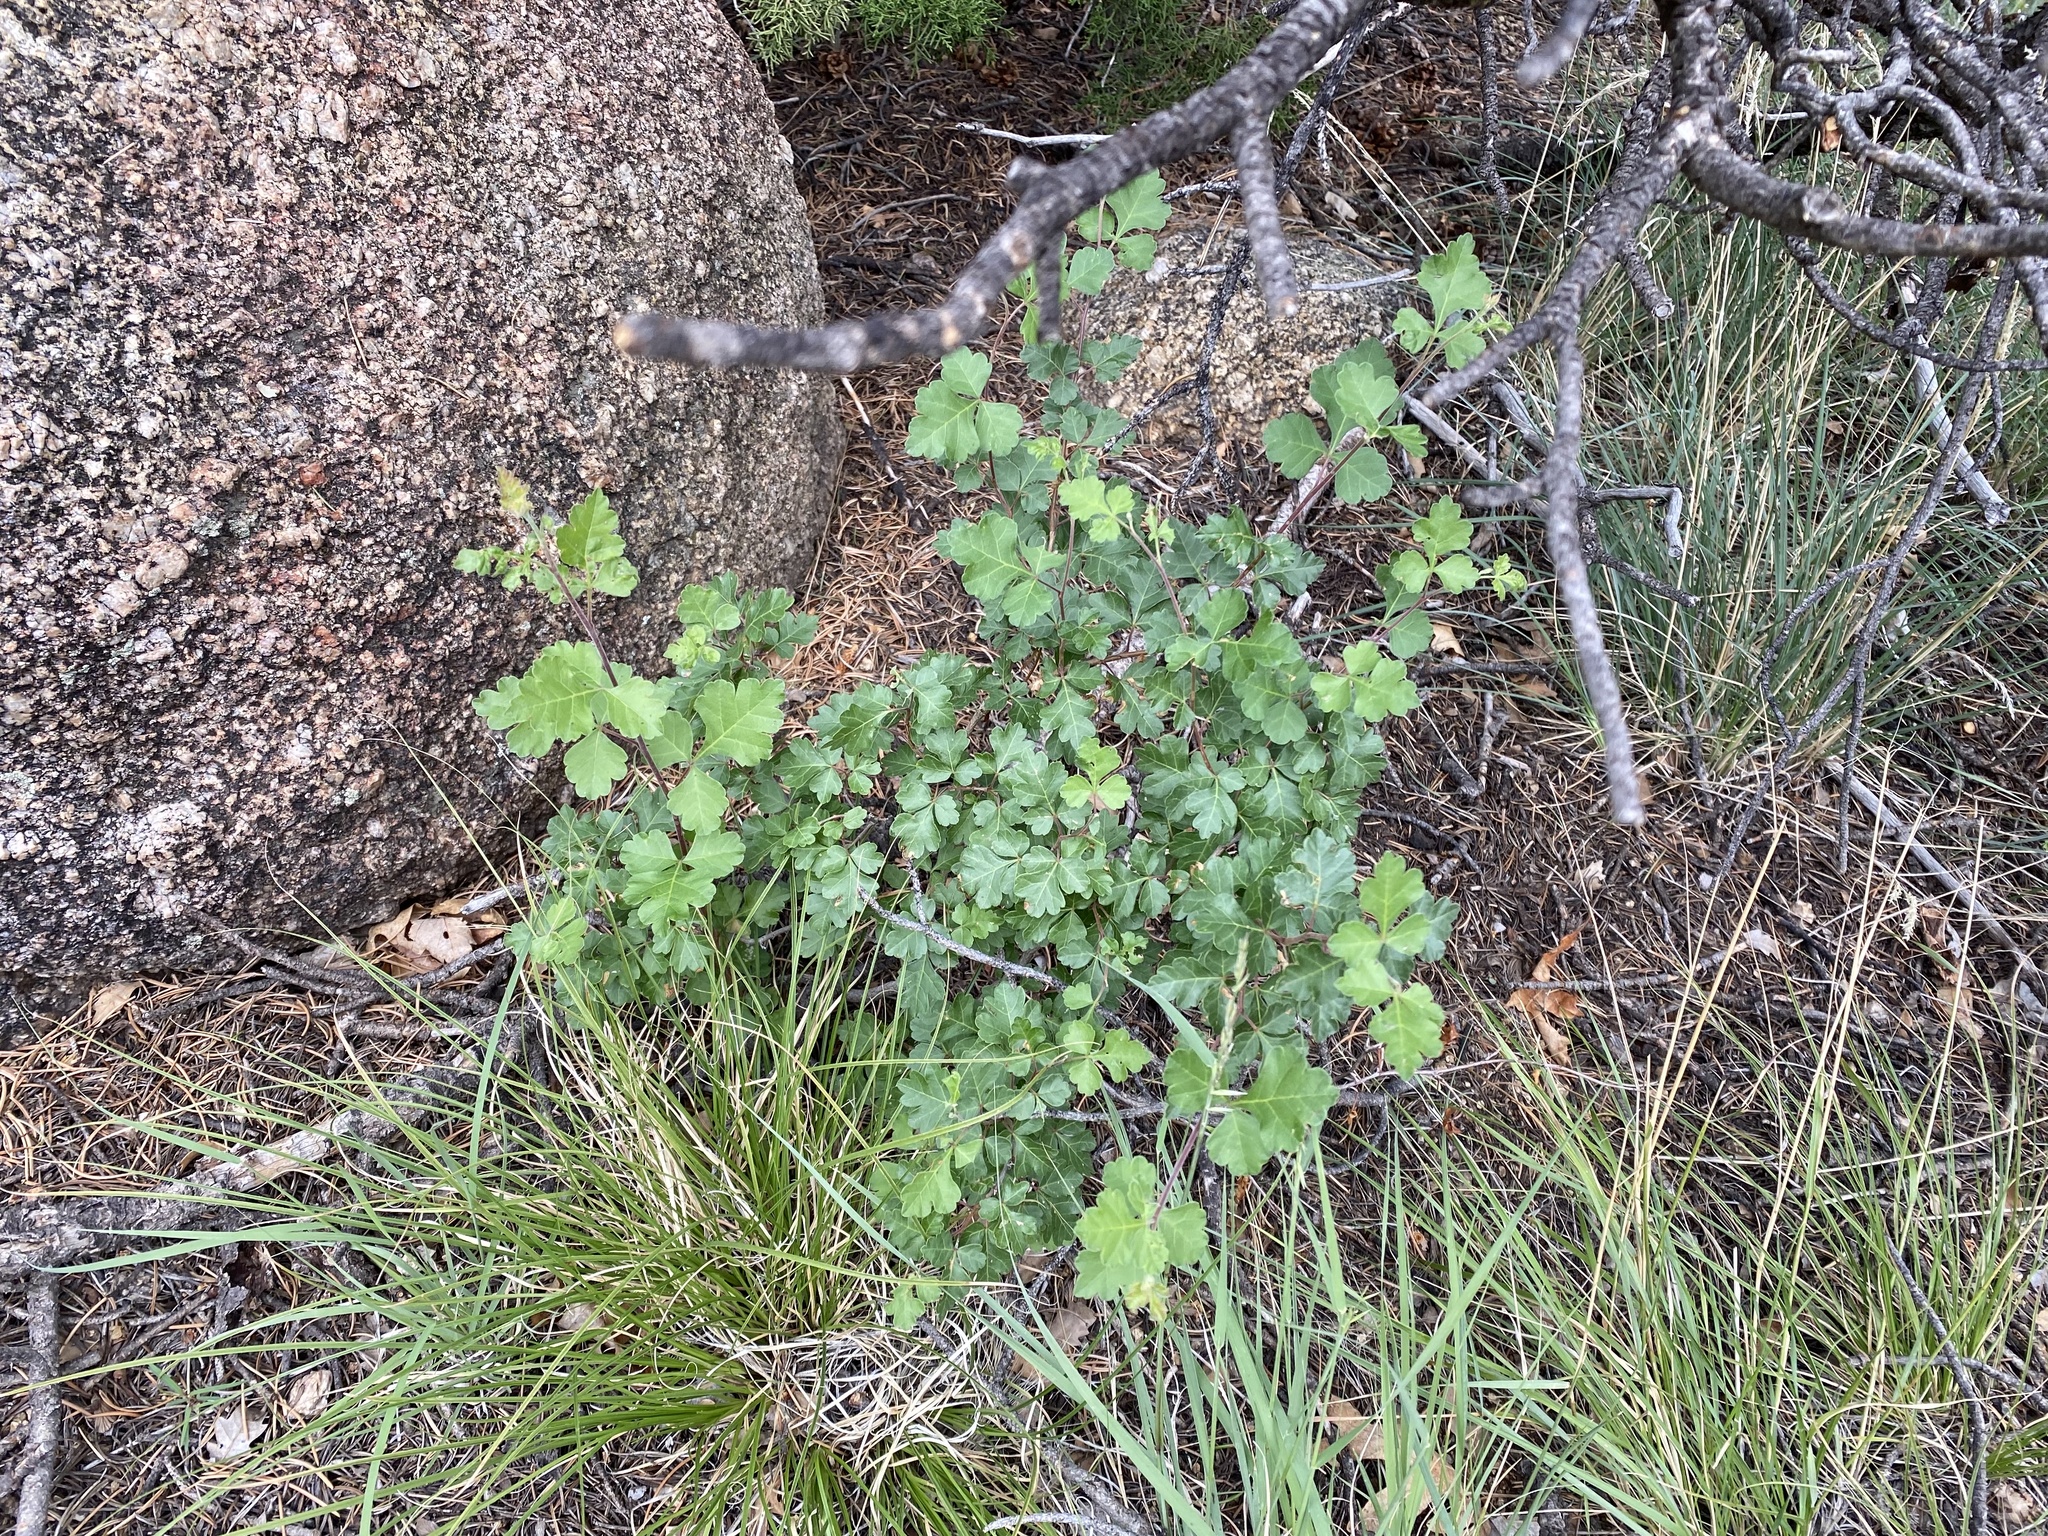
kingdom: Plantae
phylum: Tracheophyta
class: Magnoliopsida
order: Sapindales
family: Anacardiaceae
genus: Rhus
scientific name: Rhus trilobata
